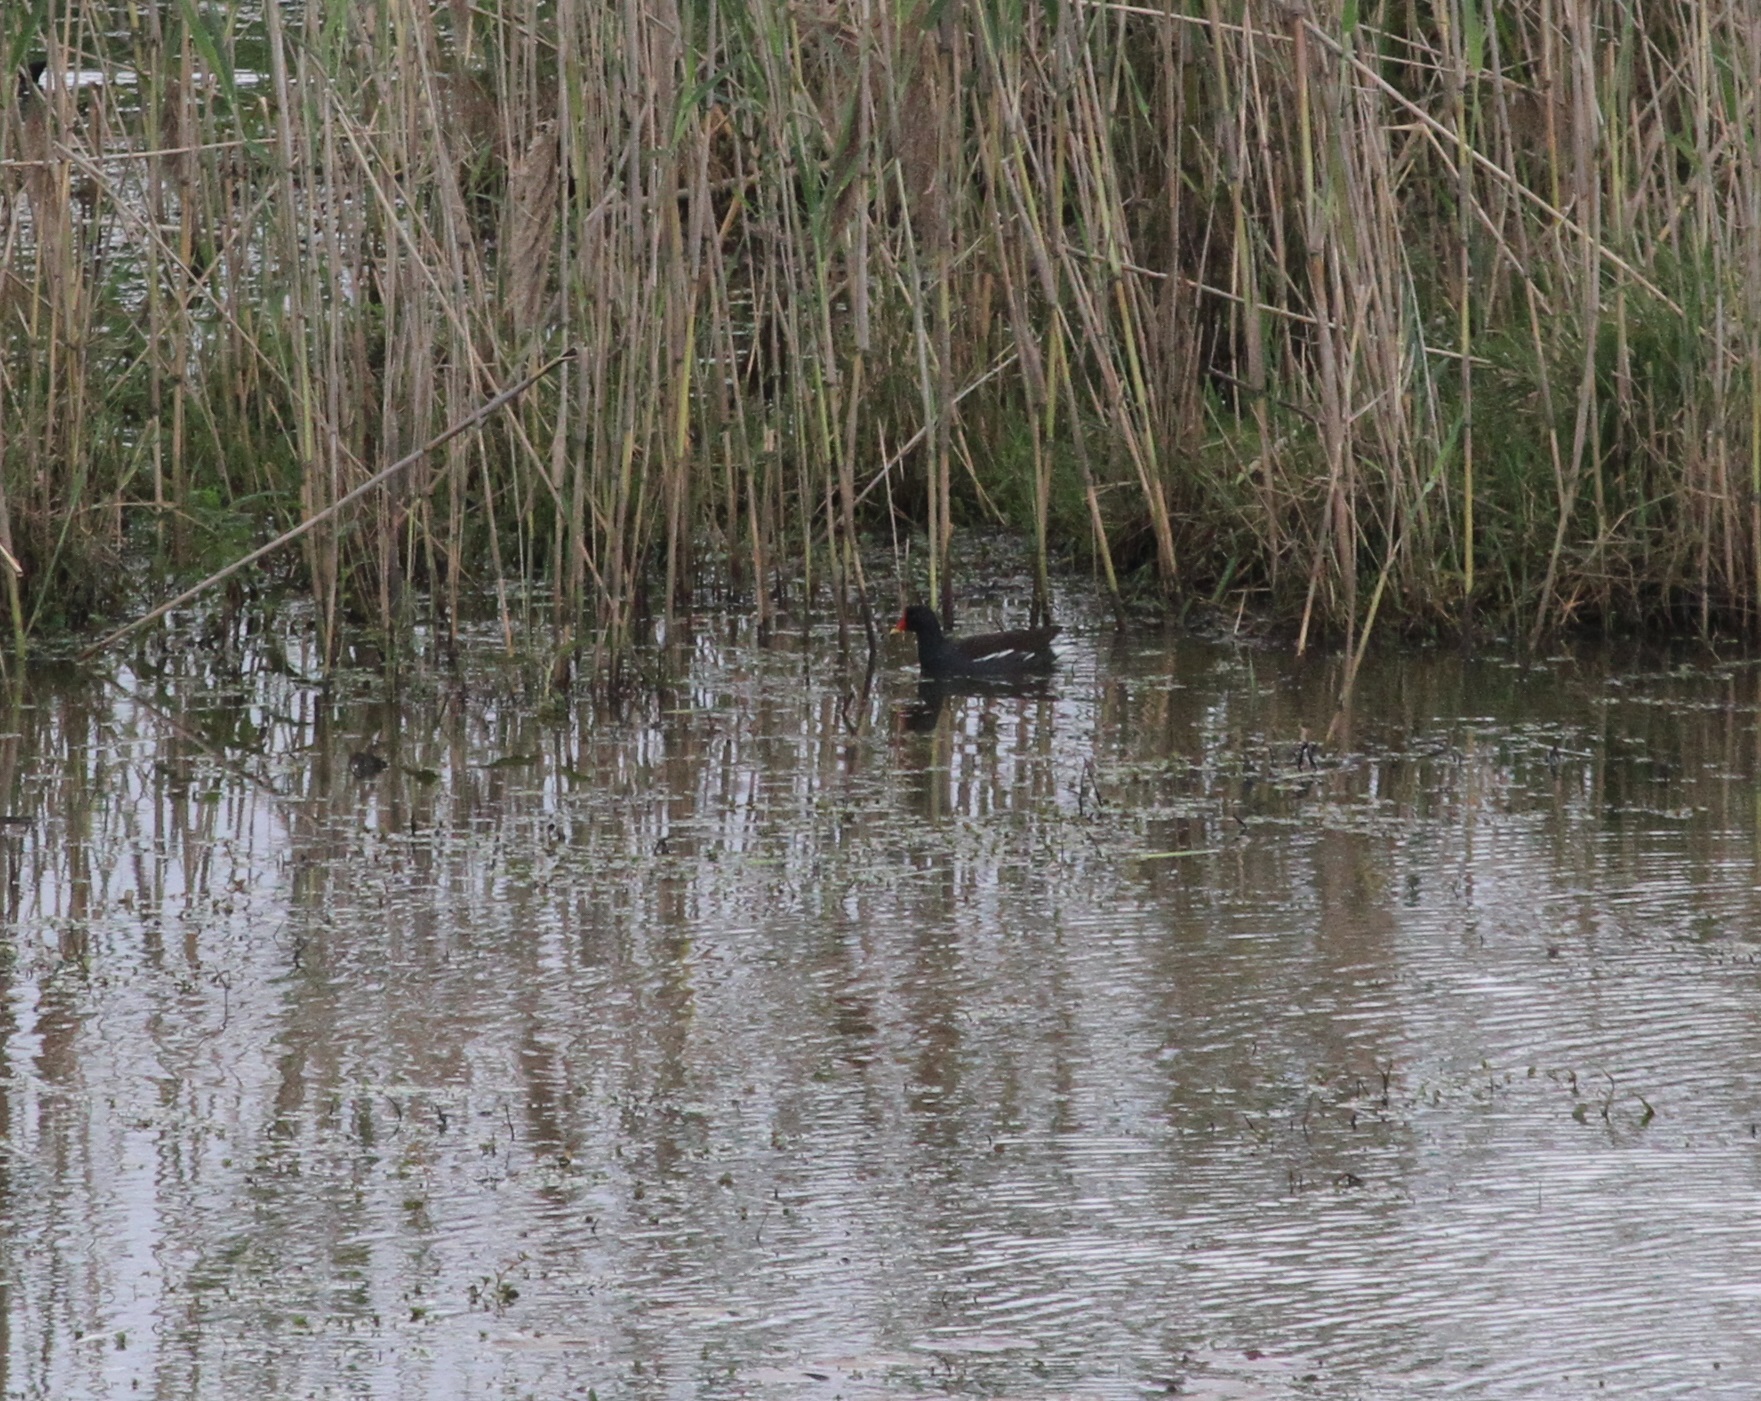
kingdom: Animalia
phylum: Chordata
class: Aves
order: Gruiformes
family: Rallidae
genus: Gallinula
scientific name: Gallinula chloropus
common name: Common moorhen
